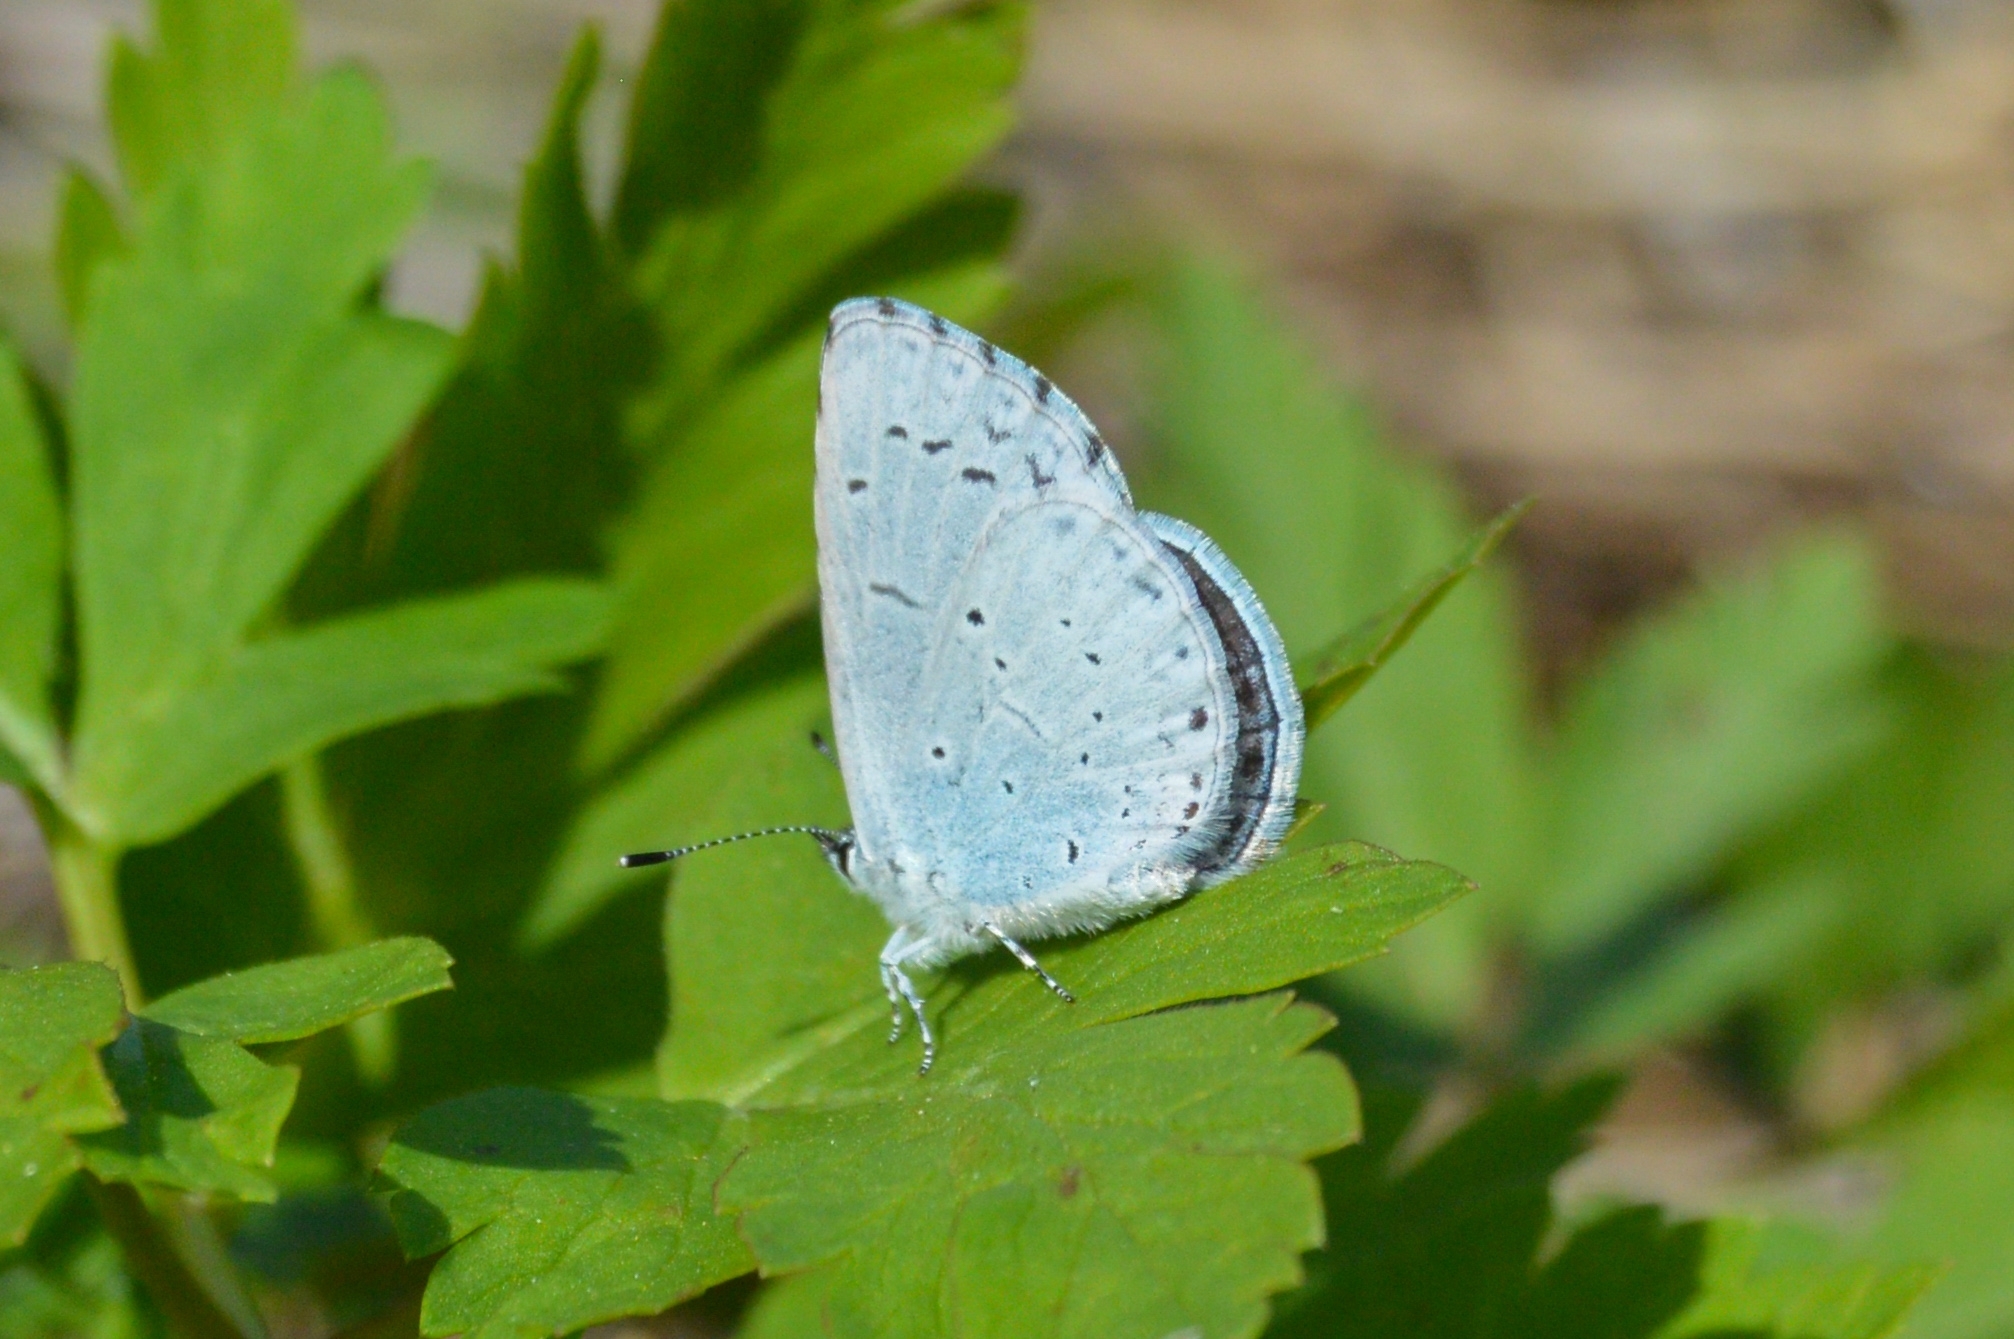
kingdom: Animalia
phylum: Arthropoda
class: Insecta
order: Lepidoptera
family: Lycaenidae
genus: Celastrina
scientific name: Celastrina argiolus
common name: Holly blue
